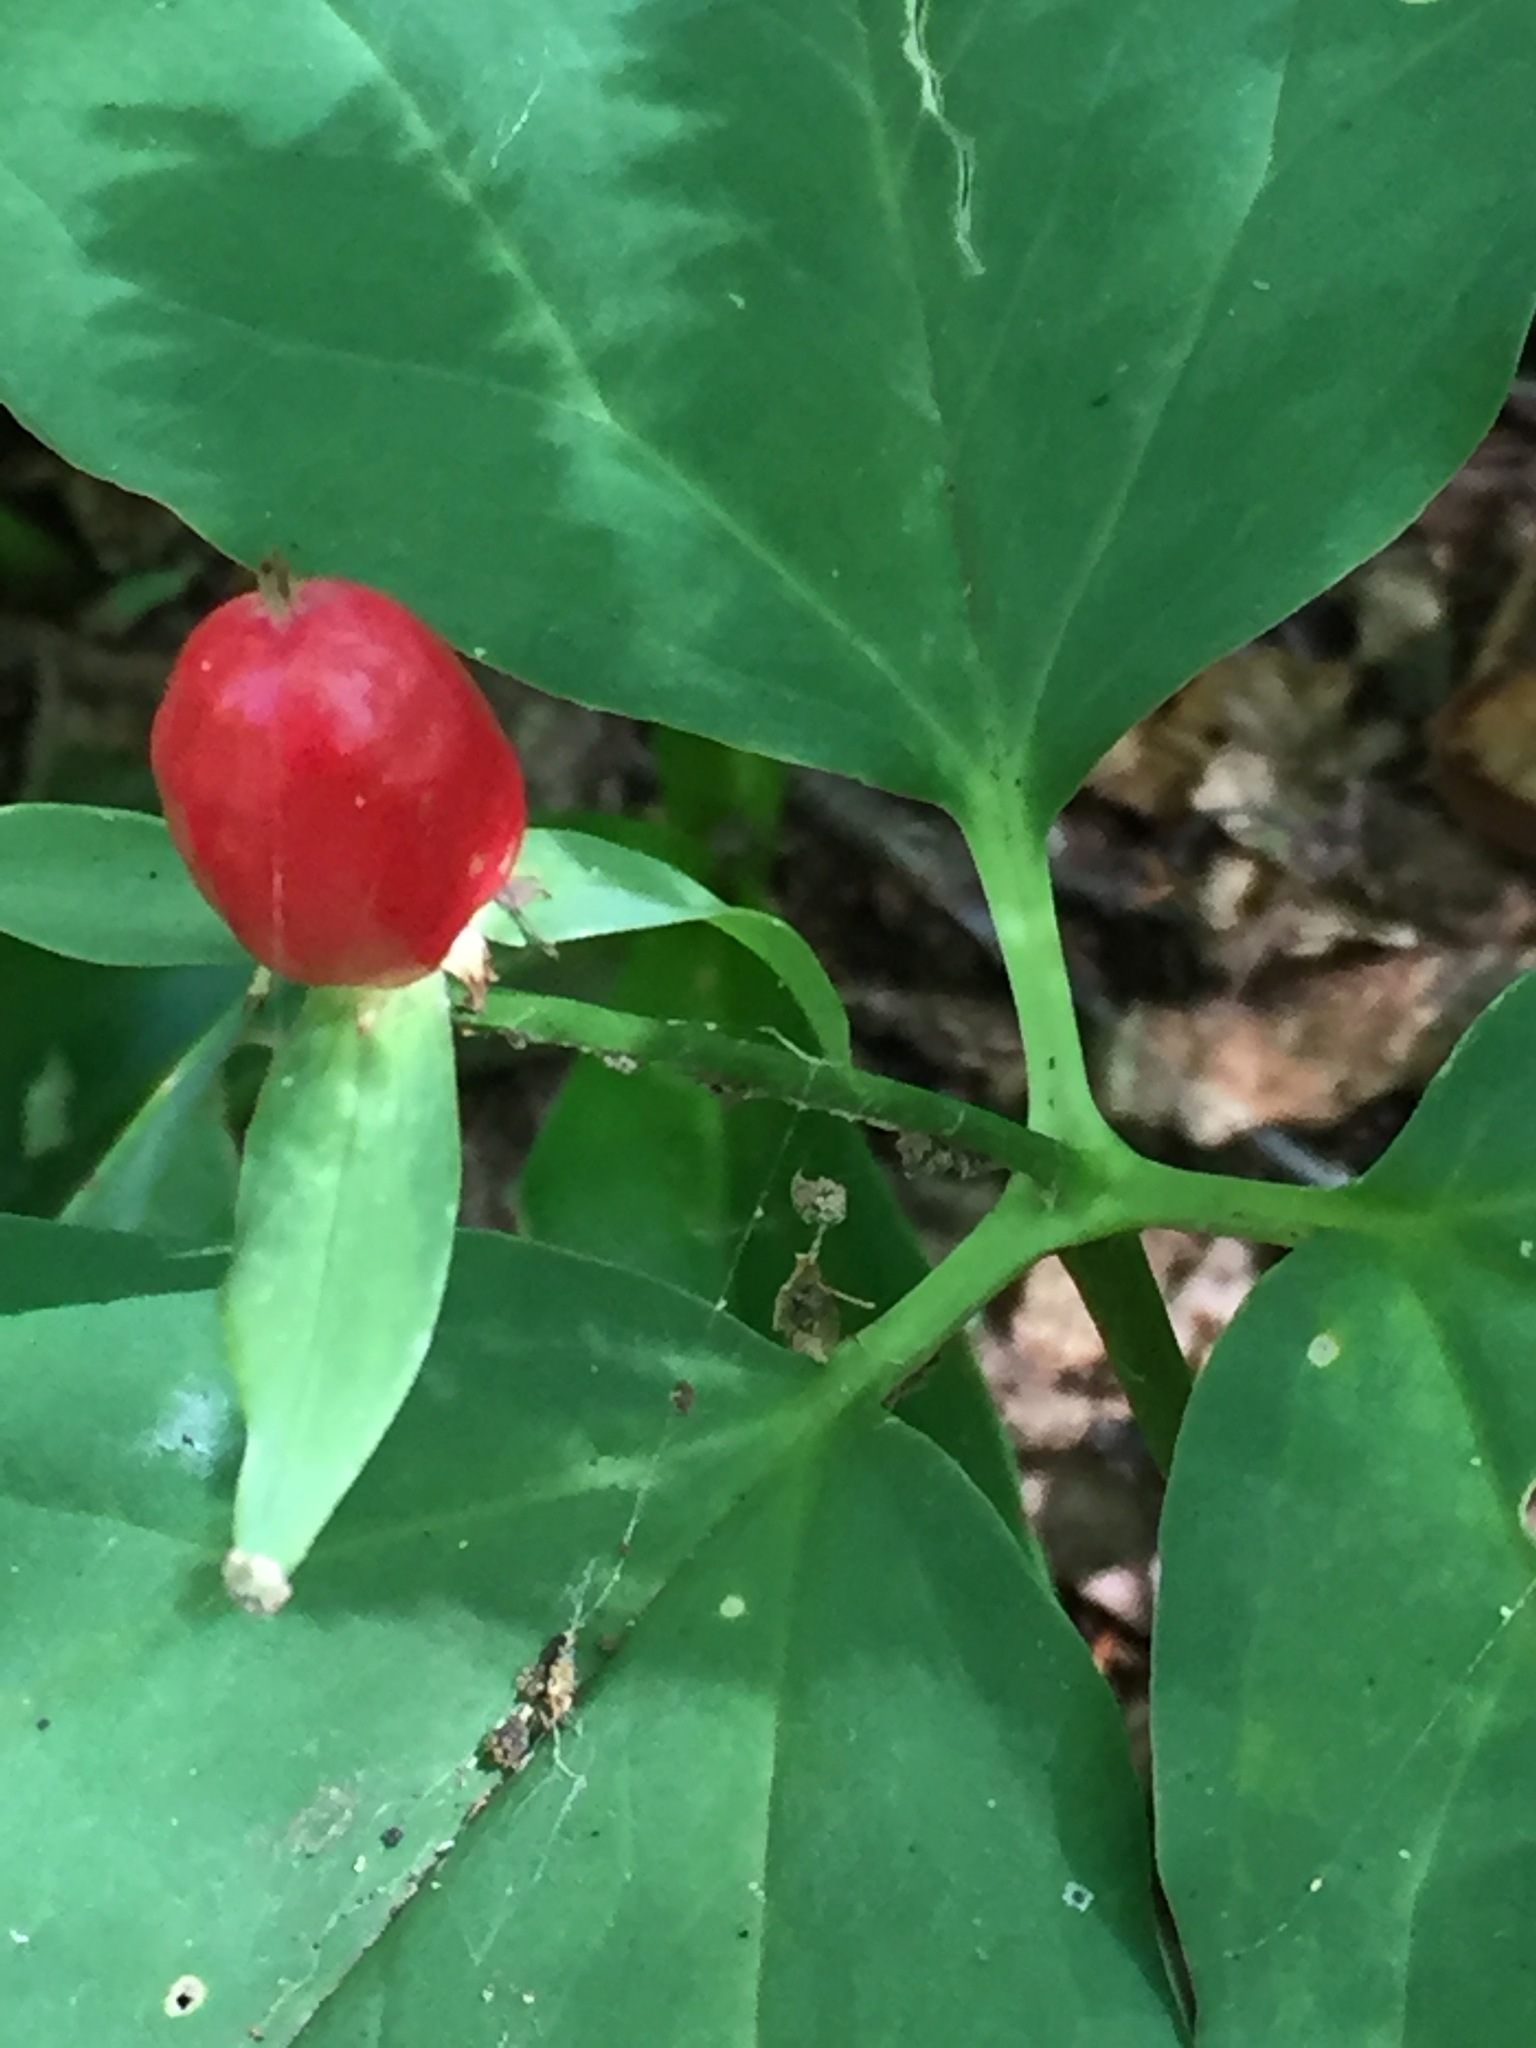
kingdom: Plantae
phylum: Tracheophyta
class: Liliopsida
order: Liliales
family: Melanthiaceae
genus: Trillium
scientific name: Trillium undulatum
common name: Paint trillium
